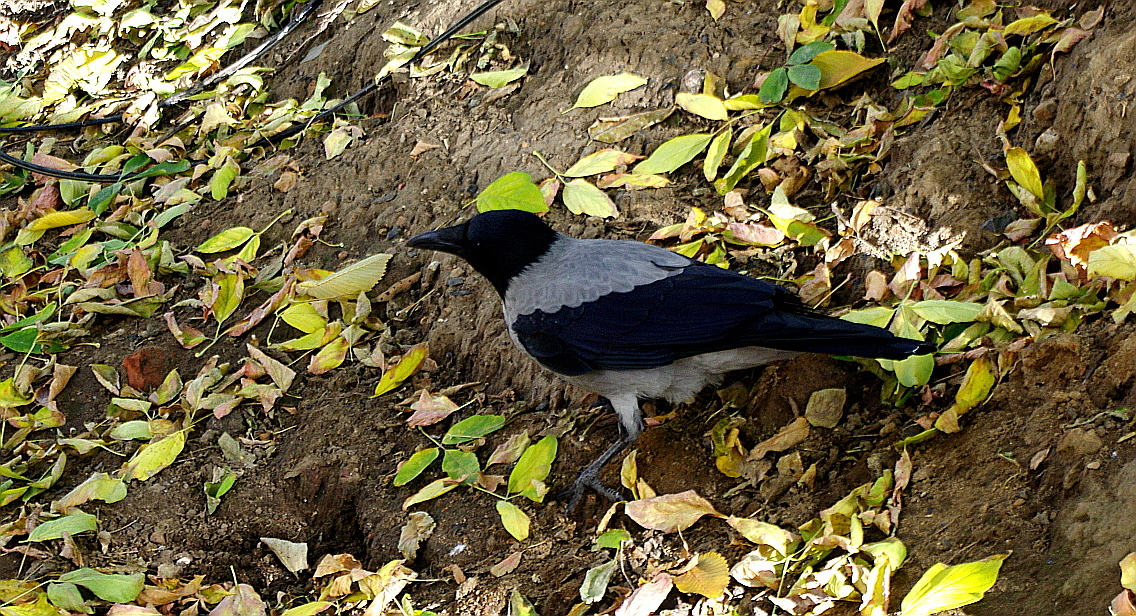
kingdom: Animalia
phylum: Chordata
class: Aves
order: Passeriformes
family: Corvidae
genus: Corvus
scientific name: Corvus cornix
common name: Hooded crow
